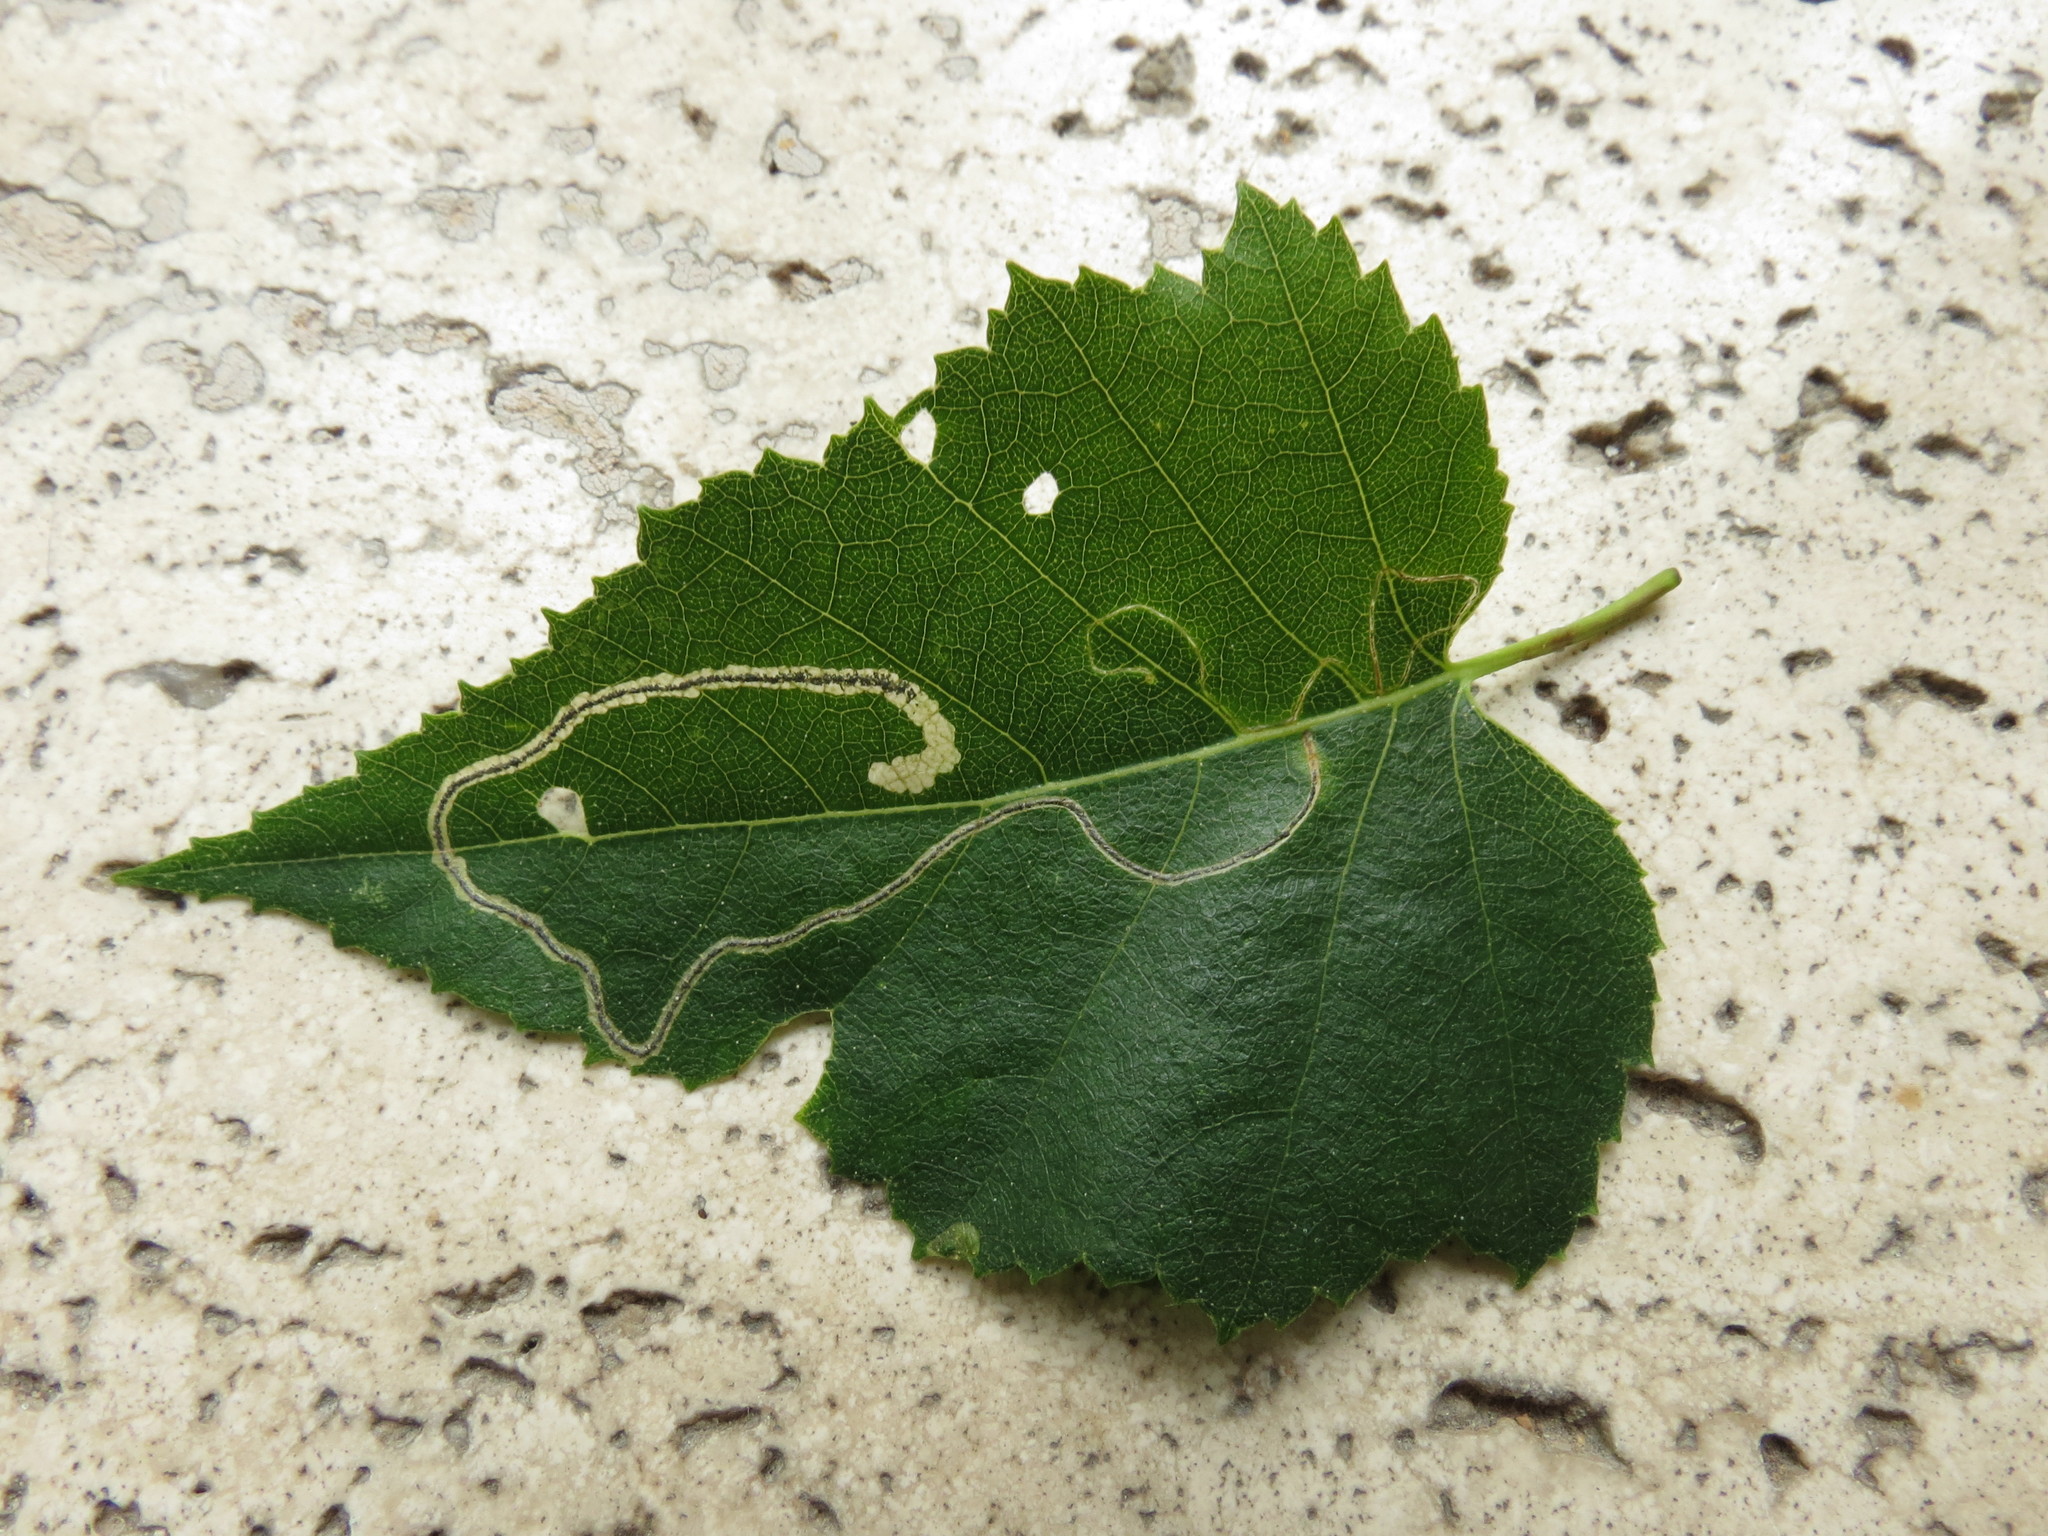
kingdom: Animalia
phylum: Arthropoda
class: Insecta
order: Lepidoptera
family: Lyonetiidae
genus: Lyonetia
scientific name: Lyonetia clerkella
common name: Apple leaf miner
